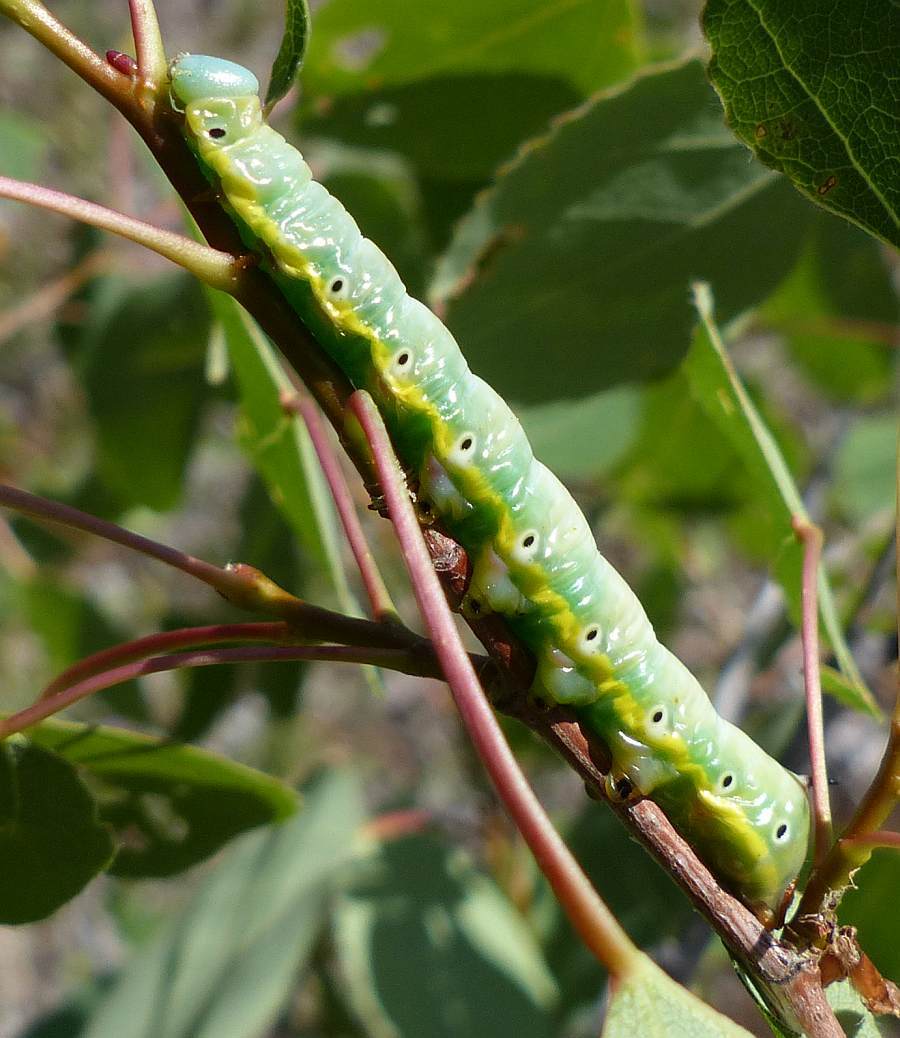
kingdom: Animalia
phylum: Arthropoda
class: Insecta
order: Lepidoptera
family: Notodontidae
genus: Pheosia
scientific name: Pheosia rimosa
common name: Black-rimmed prominent
